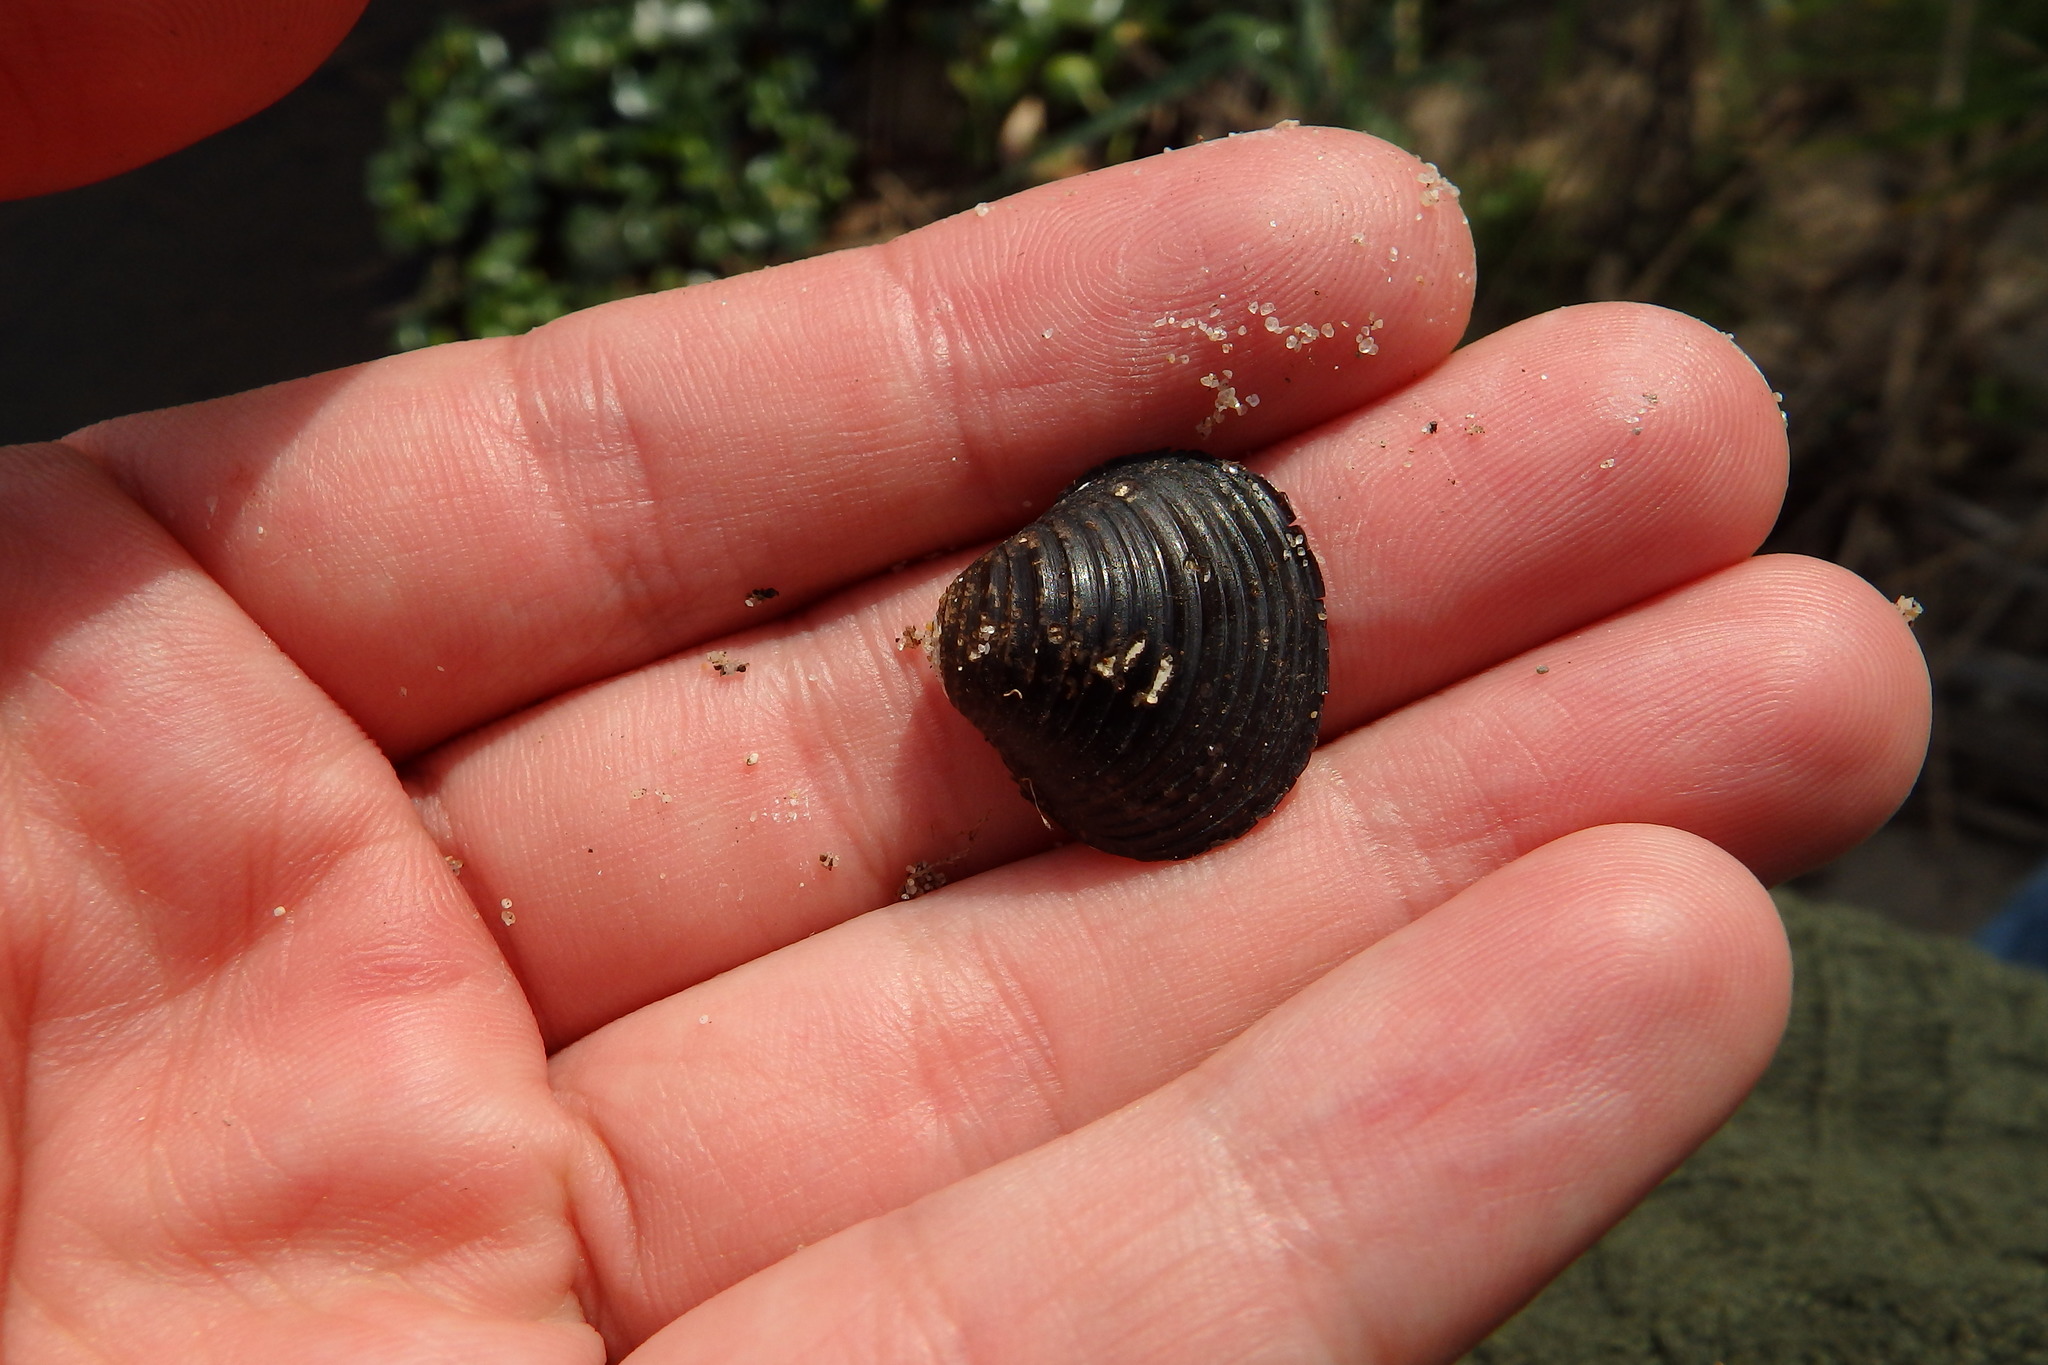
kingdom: Animalia
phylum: Mollusca
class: Bivalvia
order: Venerida
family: Cyrenidae
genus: Corbicula
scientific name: Corbicula fluminea
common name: Asian clam
